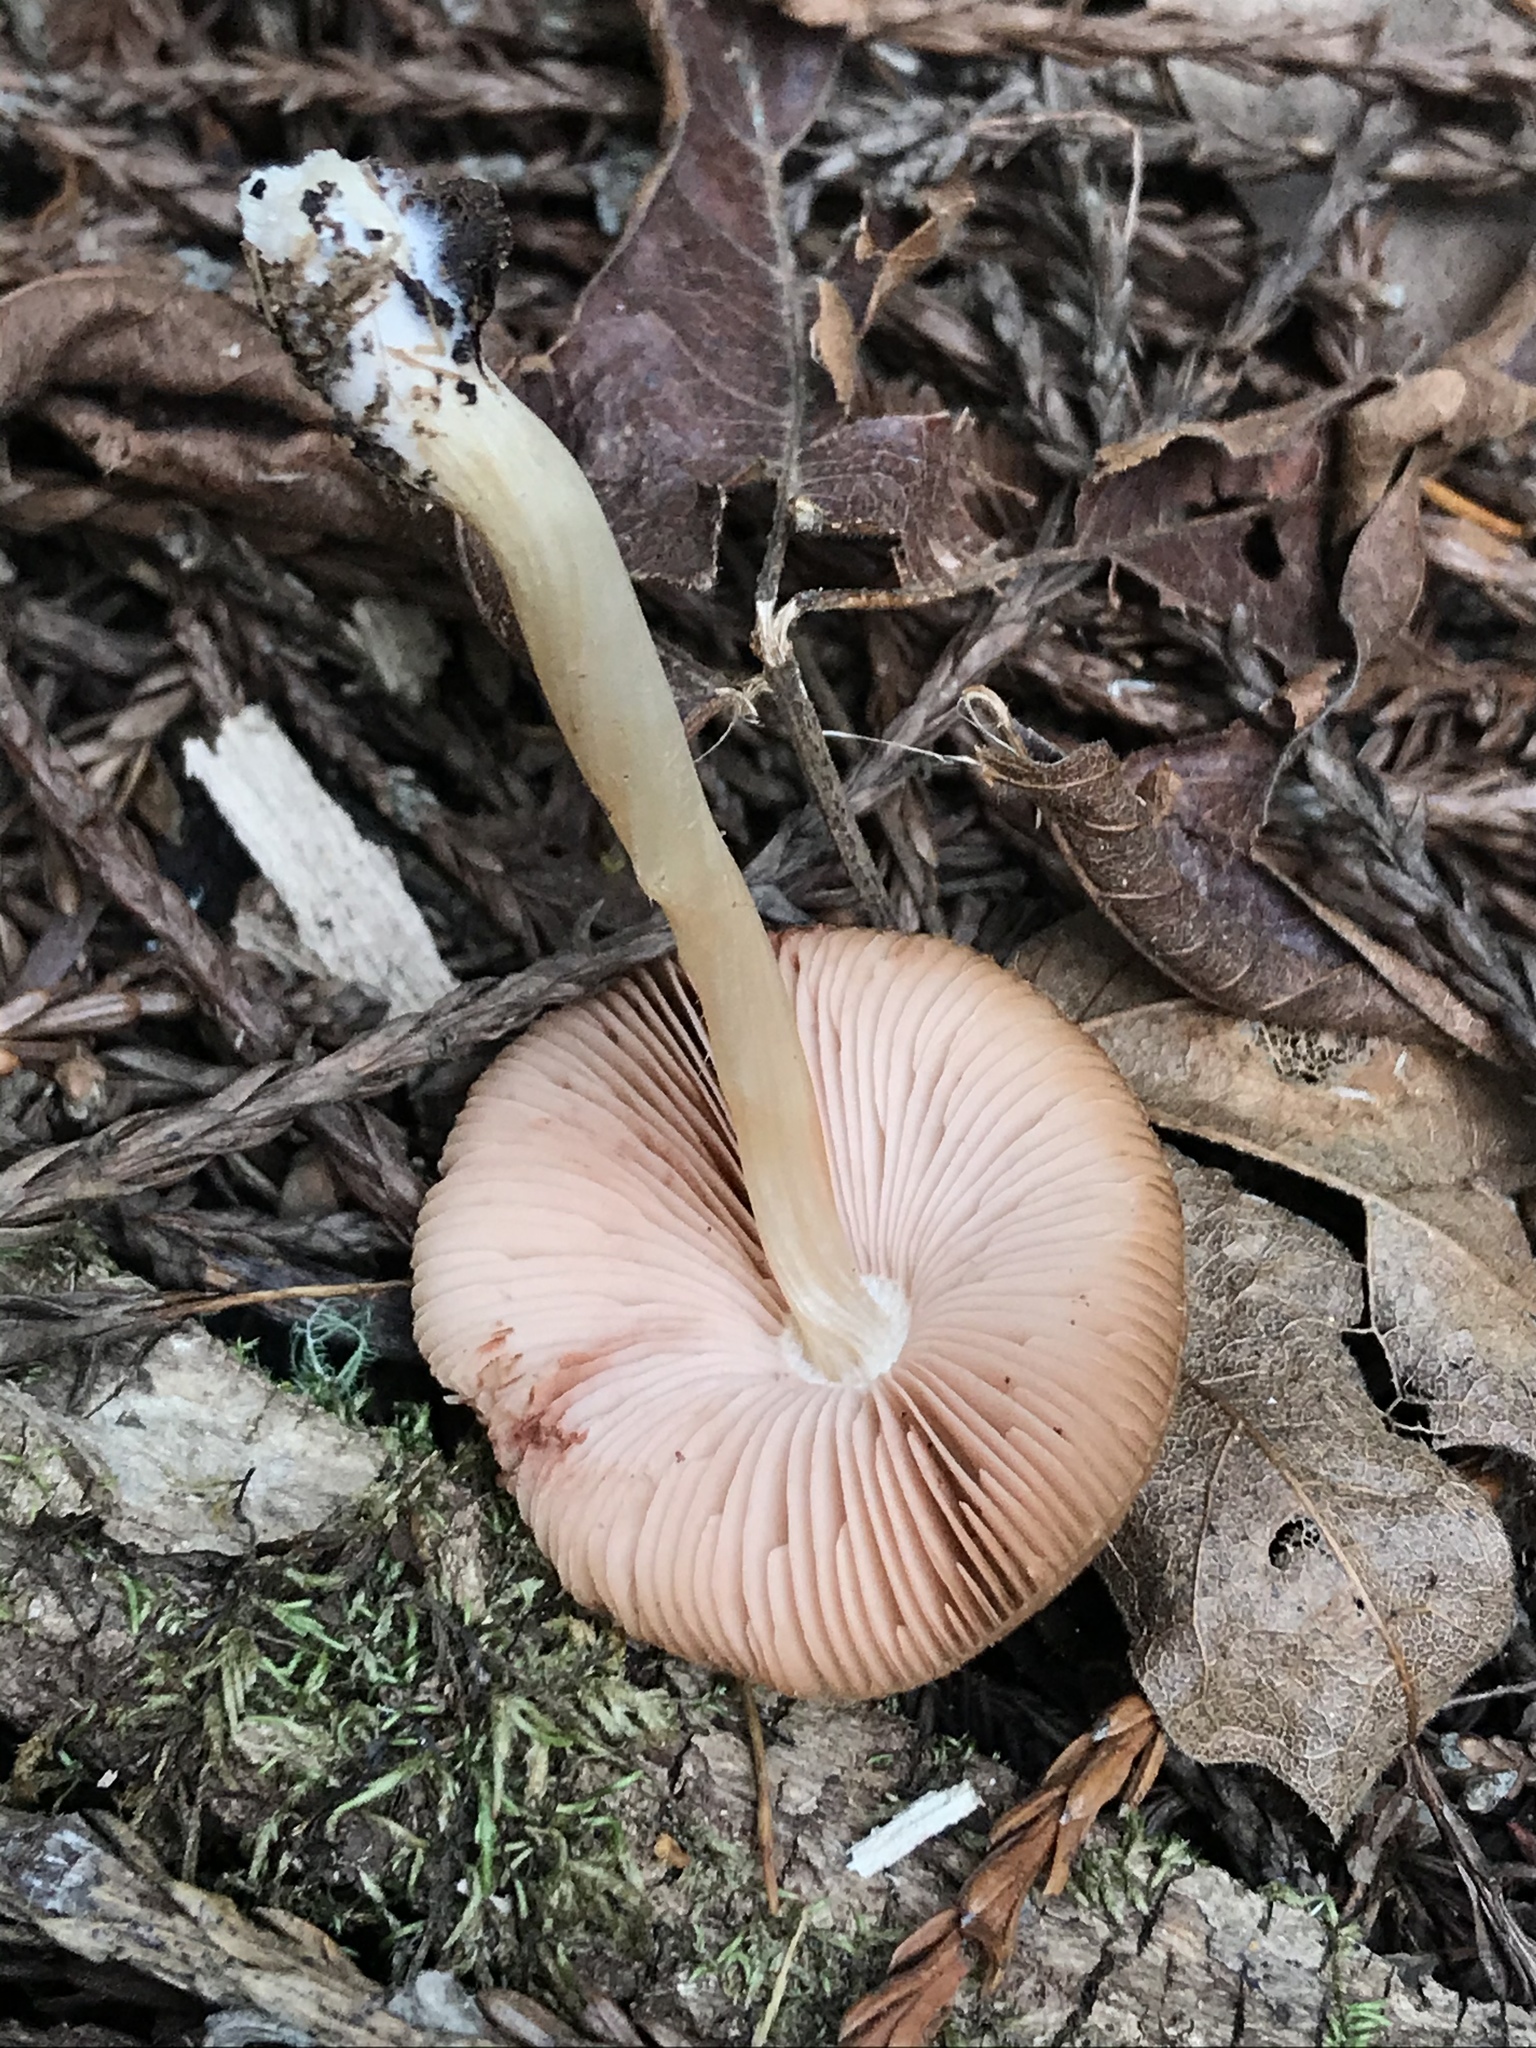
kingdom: Fungi
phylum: Basidiomycota
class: Agaricomycetes
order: Agaricales
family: Pluteaceae
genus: Pluteus
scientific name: Pluteus cervinus
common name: Deer shield
